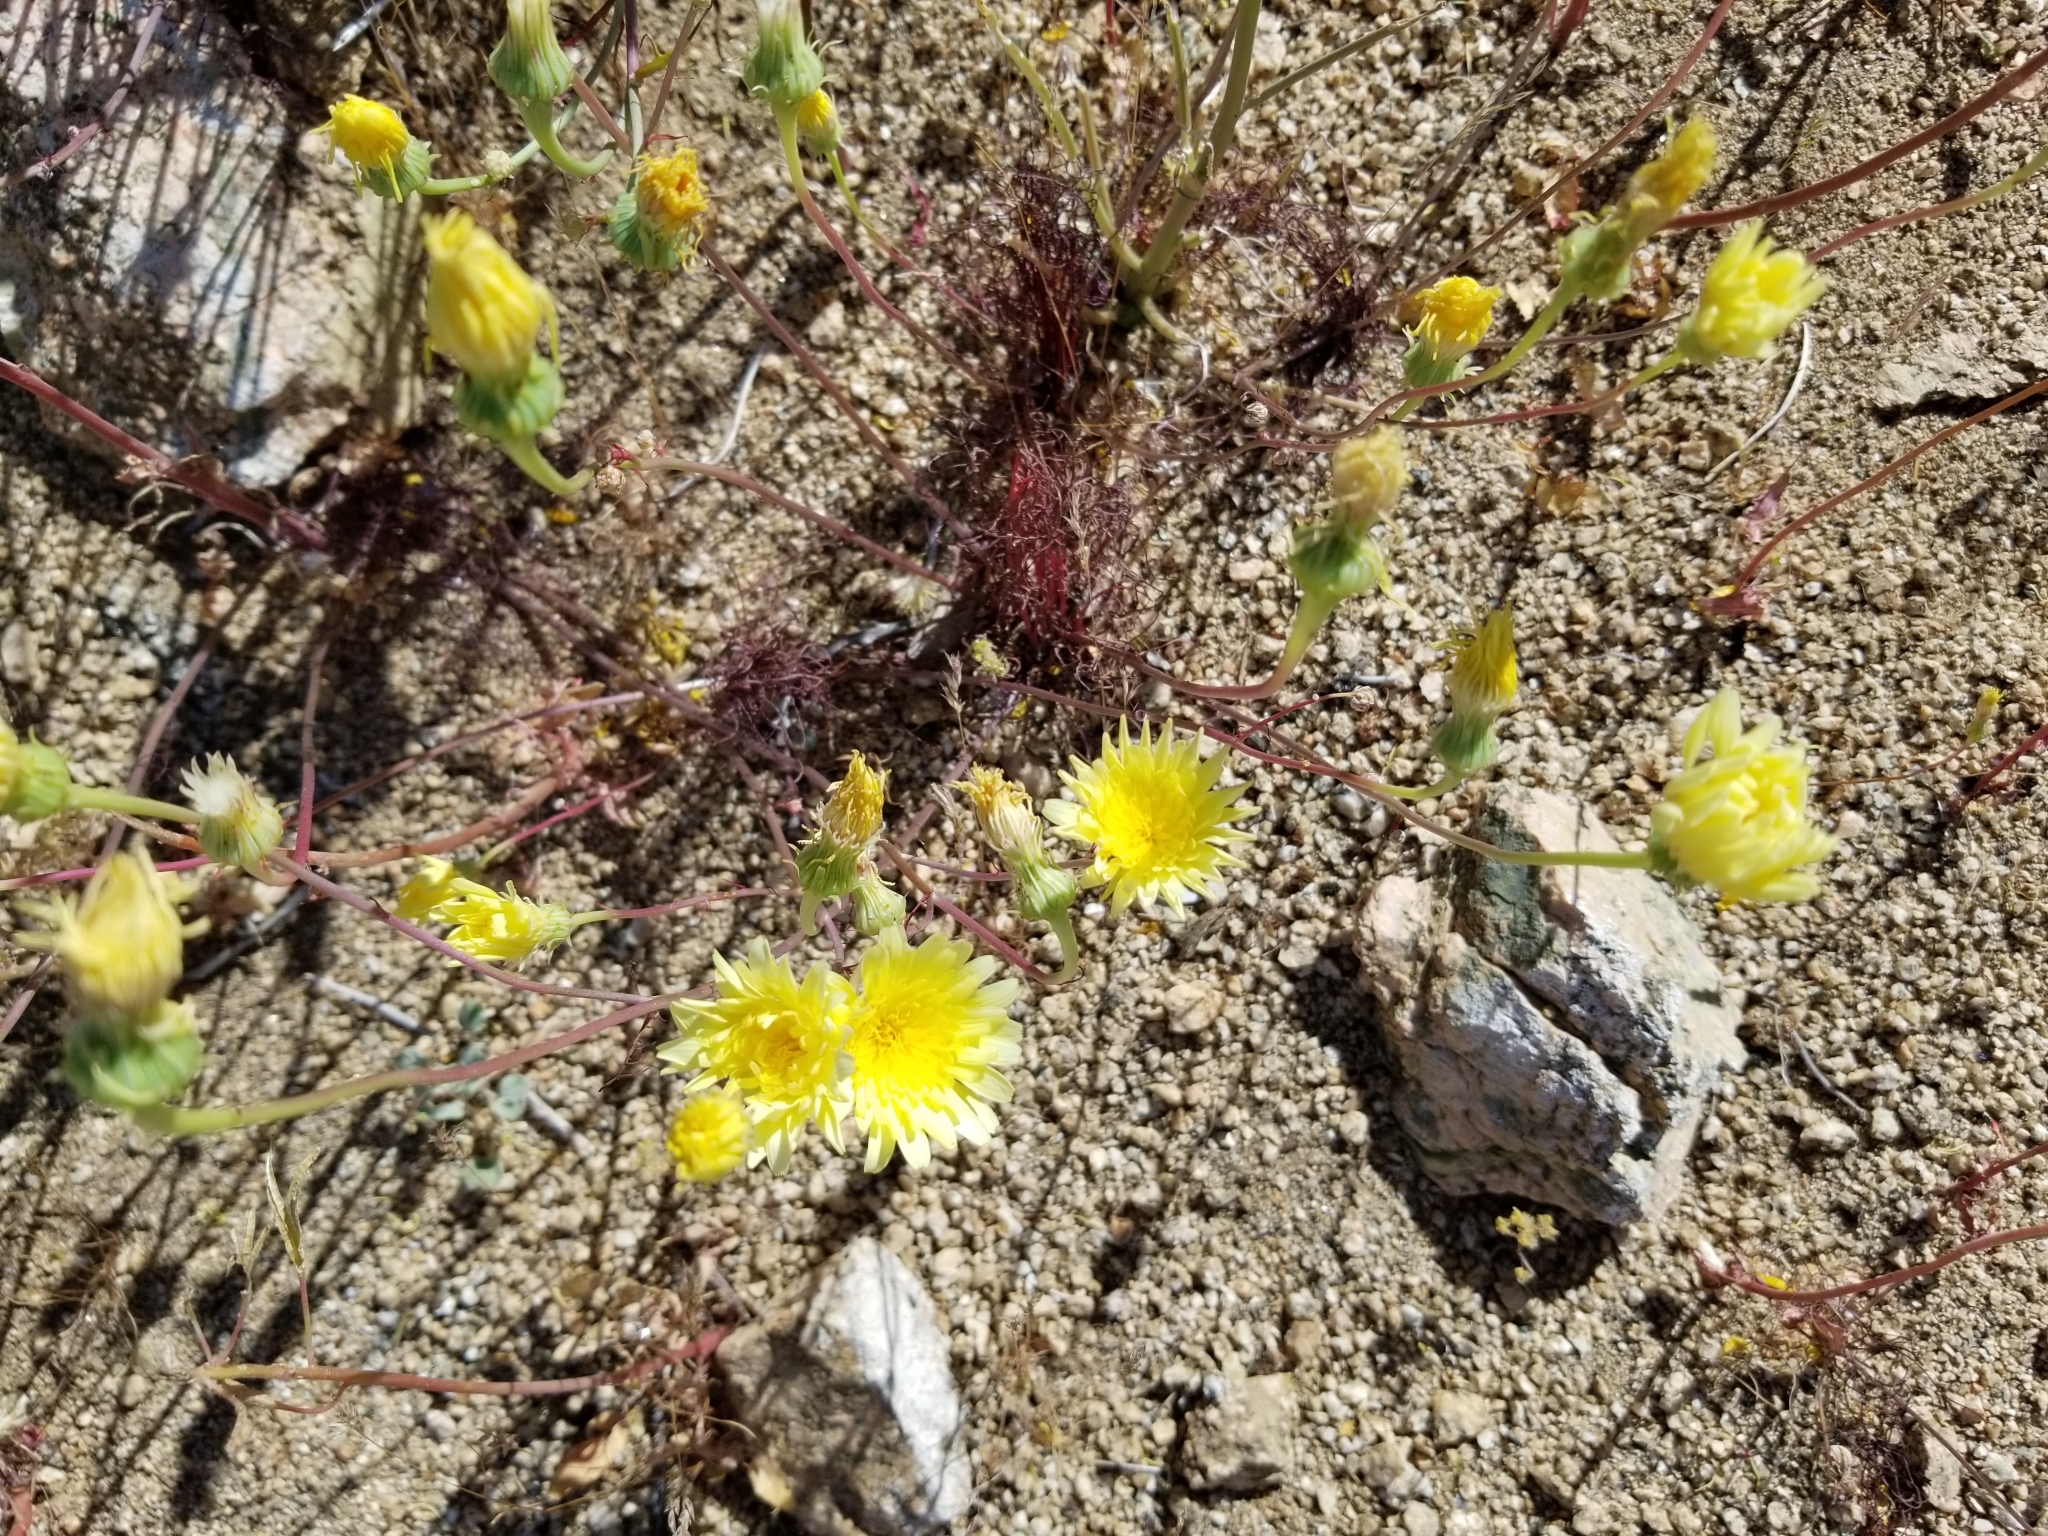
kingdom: Plantae
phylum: Tracheophyta
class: Magnoliopsida
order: Asterales
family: Asteraceae
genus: Malacothrix
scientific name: Malacothrix glabrata
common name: Smooth desert-dandelion
